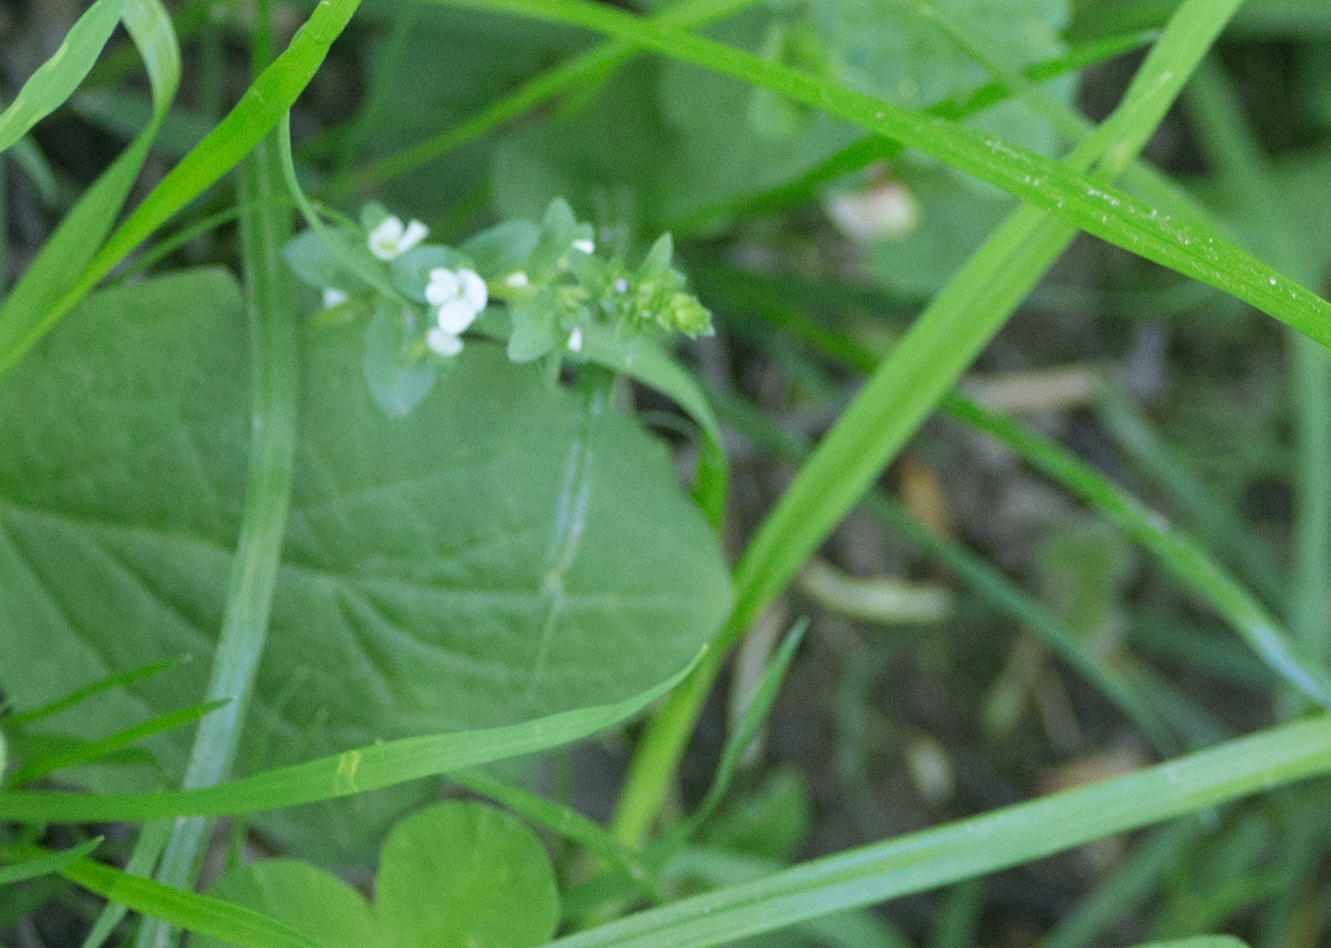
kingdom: Plantae
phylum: Tracheophyta
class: Magnoliopsida
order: Lamiales
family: Plantaginaceae
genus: Veronica
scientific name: Veronica serpyllifolia
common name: Thyme-leaved speedwell
